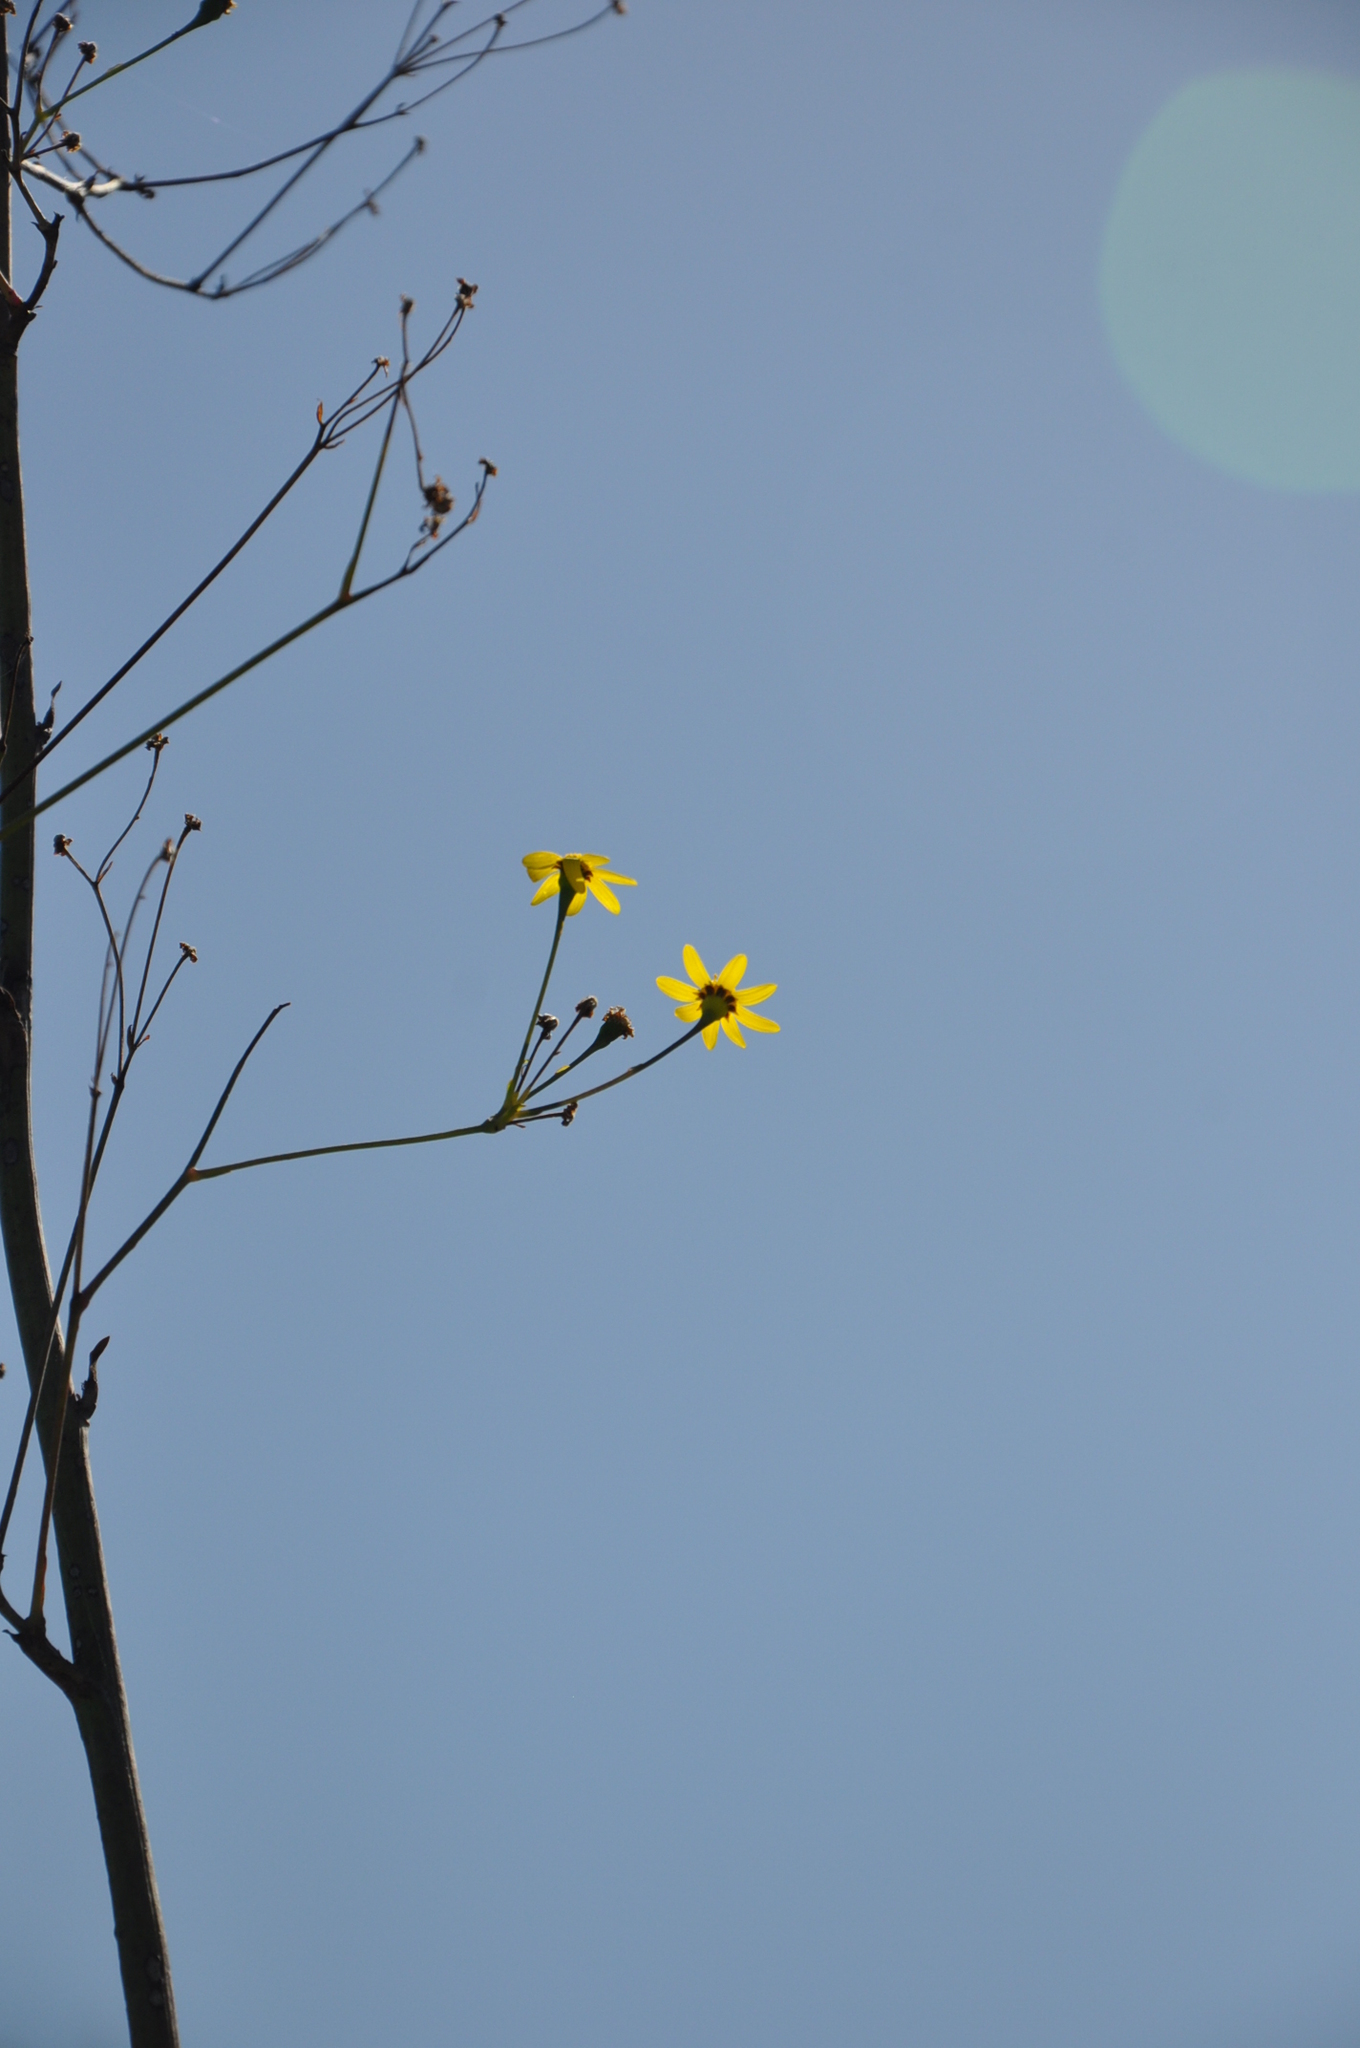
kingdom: Plantae
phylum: Tracheophyta
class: Magnoliopsida
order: Asterales
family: Asteraceae
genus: Othonna
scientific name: Othonna quinquedentata
